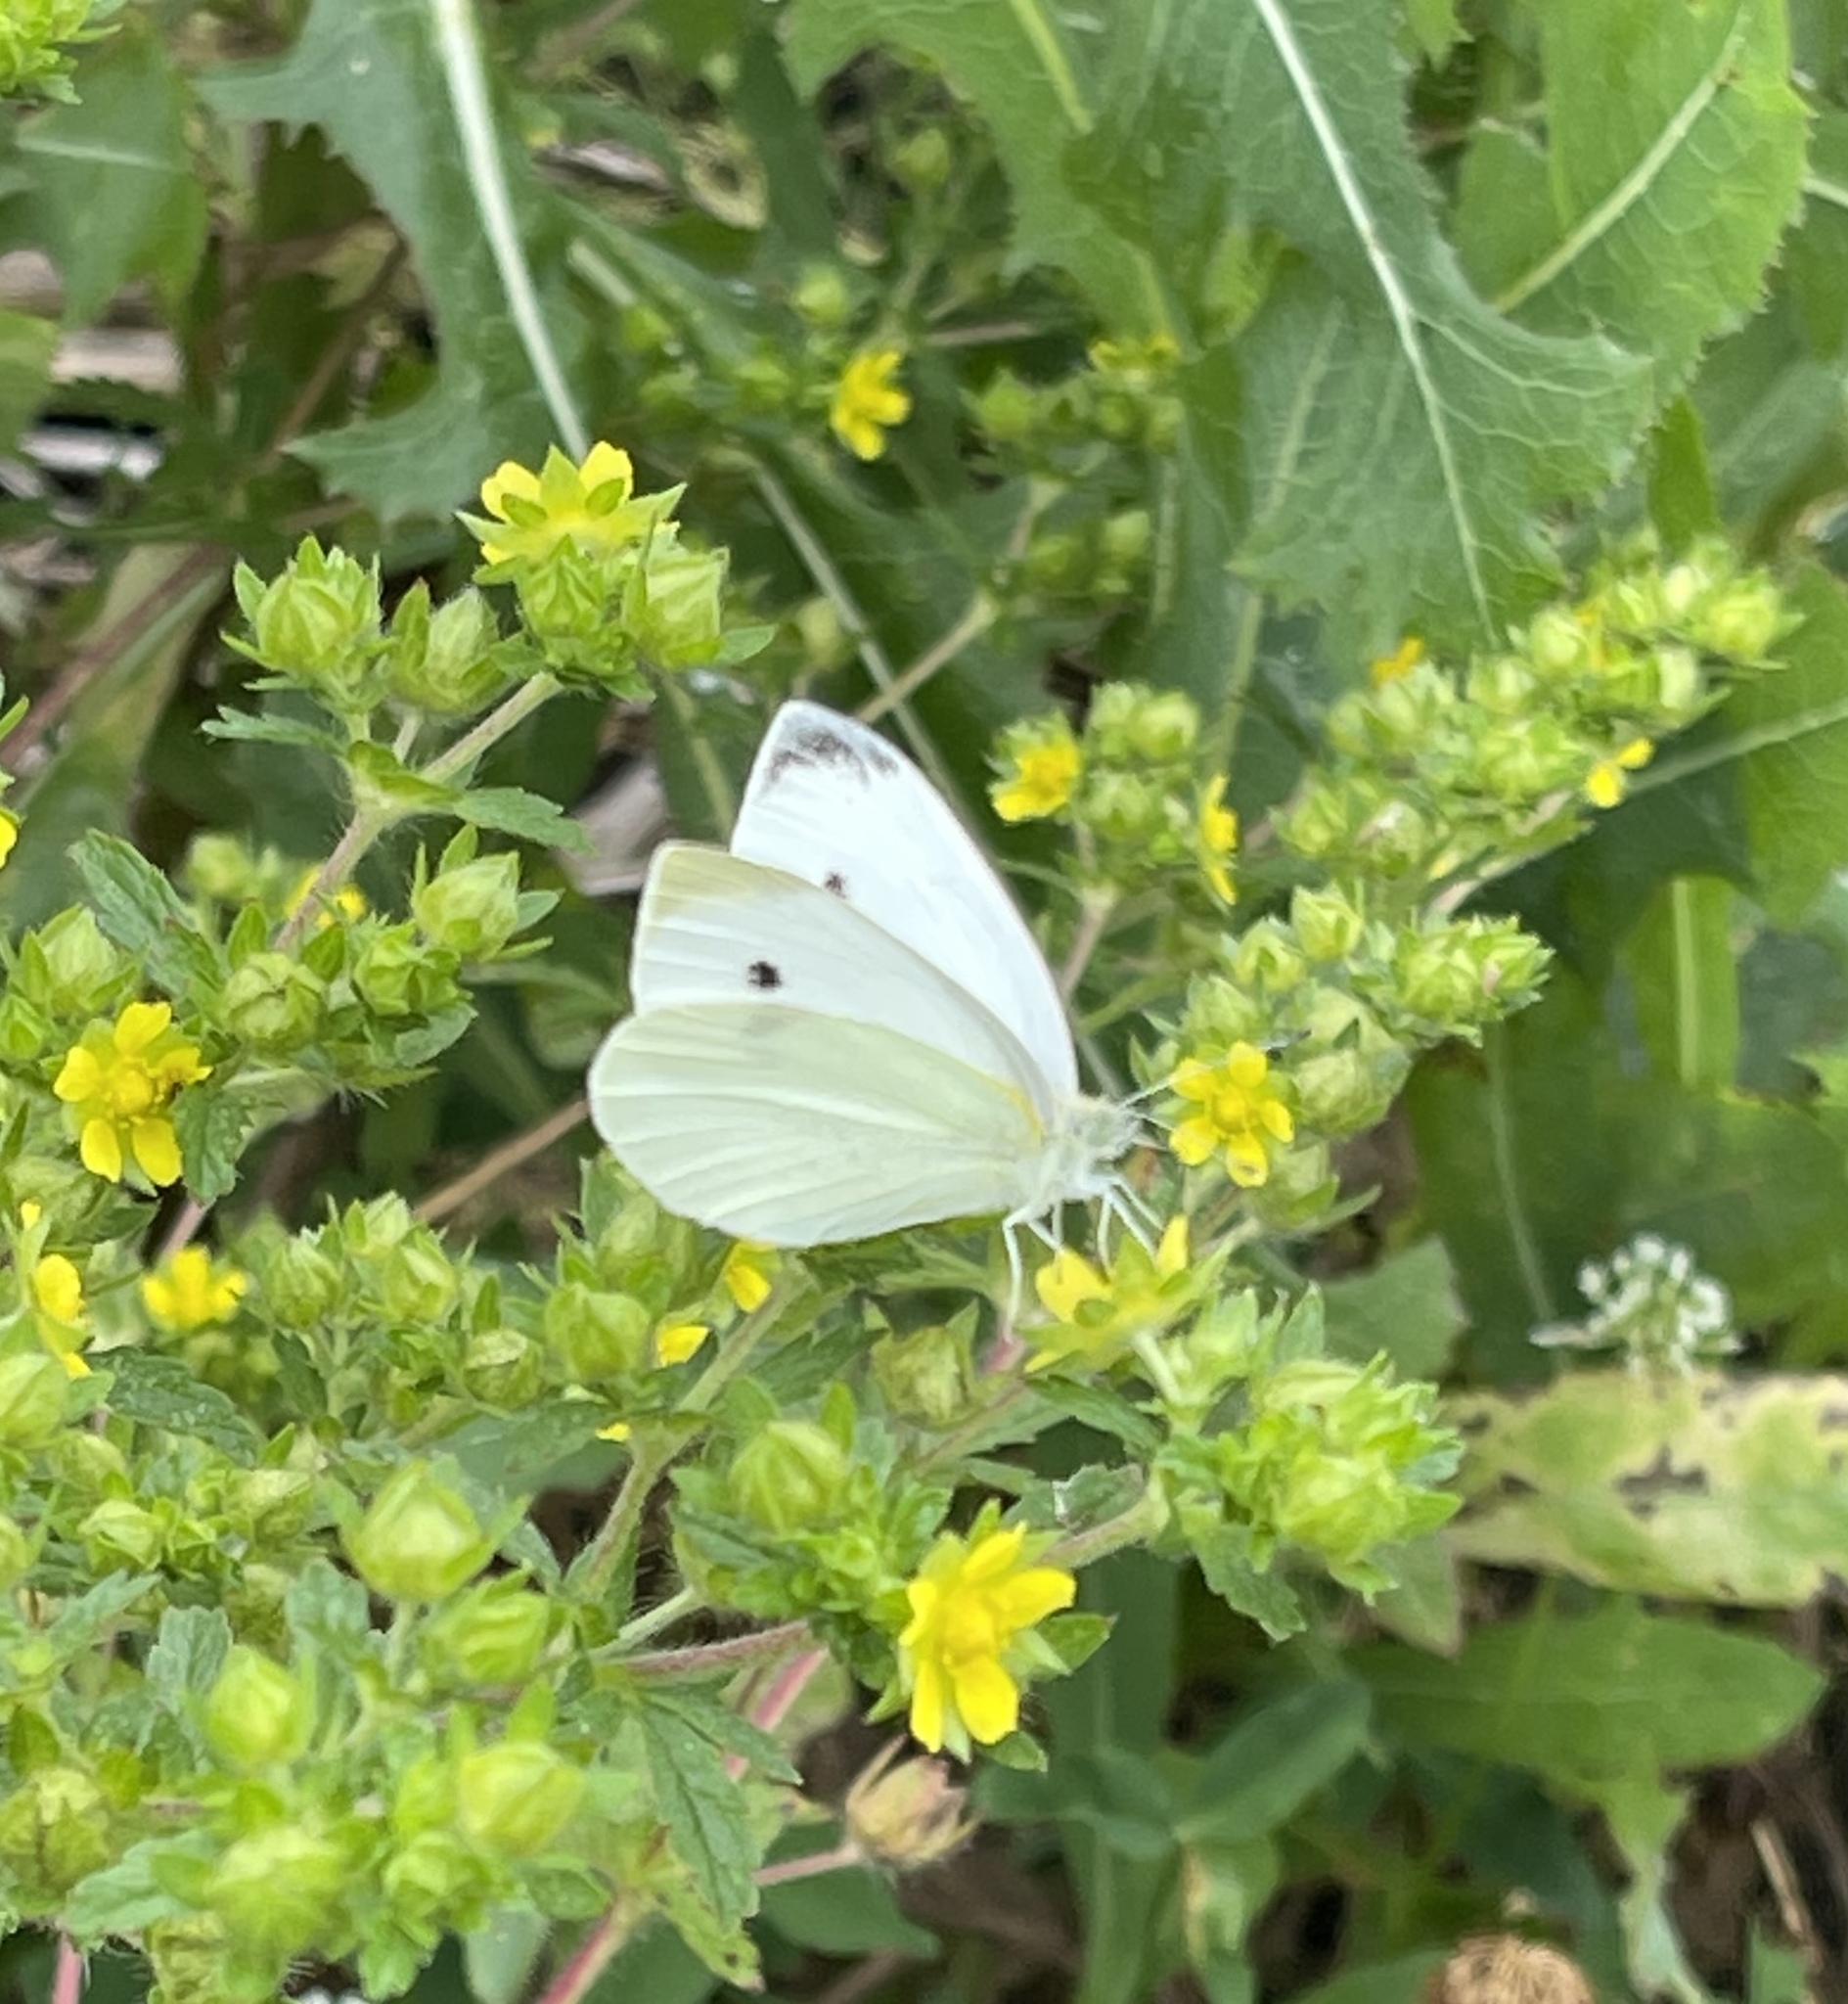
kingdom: Animalia
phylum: Arthropoda
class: Insecta
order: Lepidoptera
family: Pieridae
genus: Pieris
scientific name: Pieris rapae
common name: Small white
